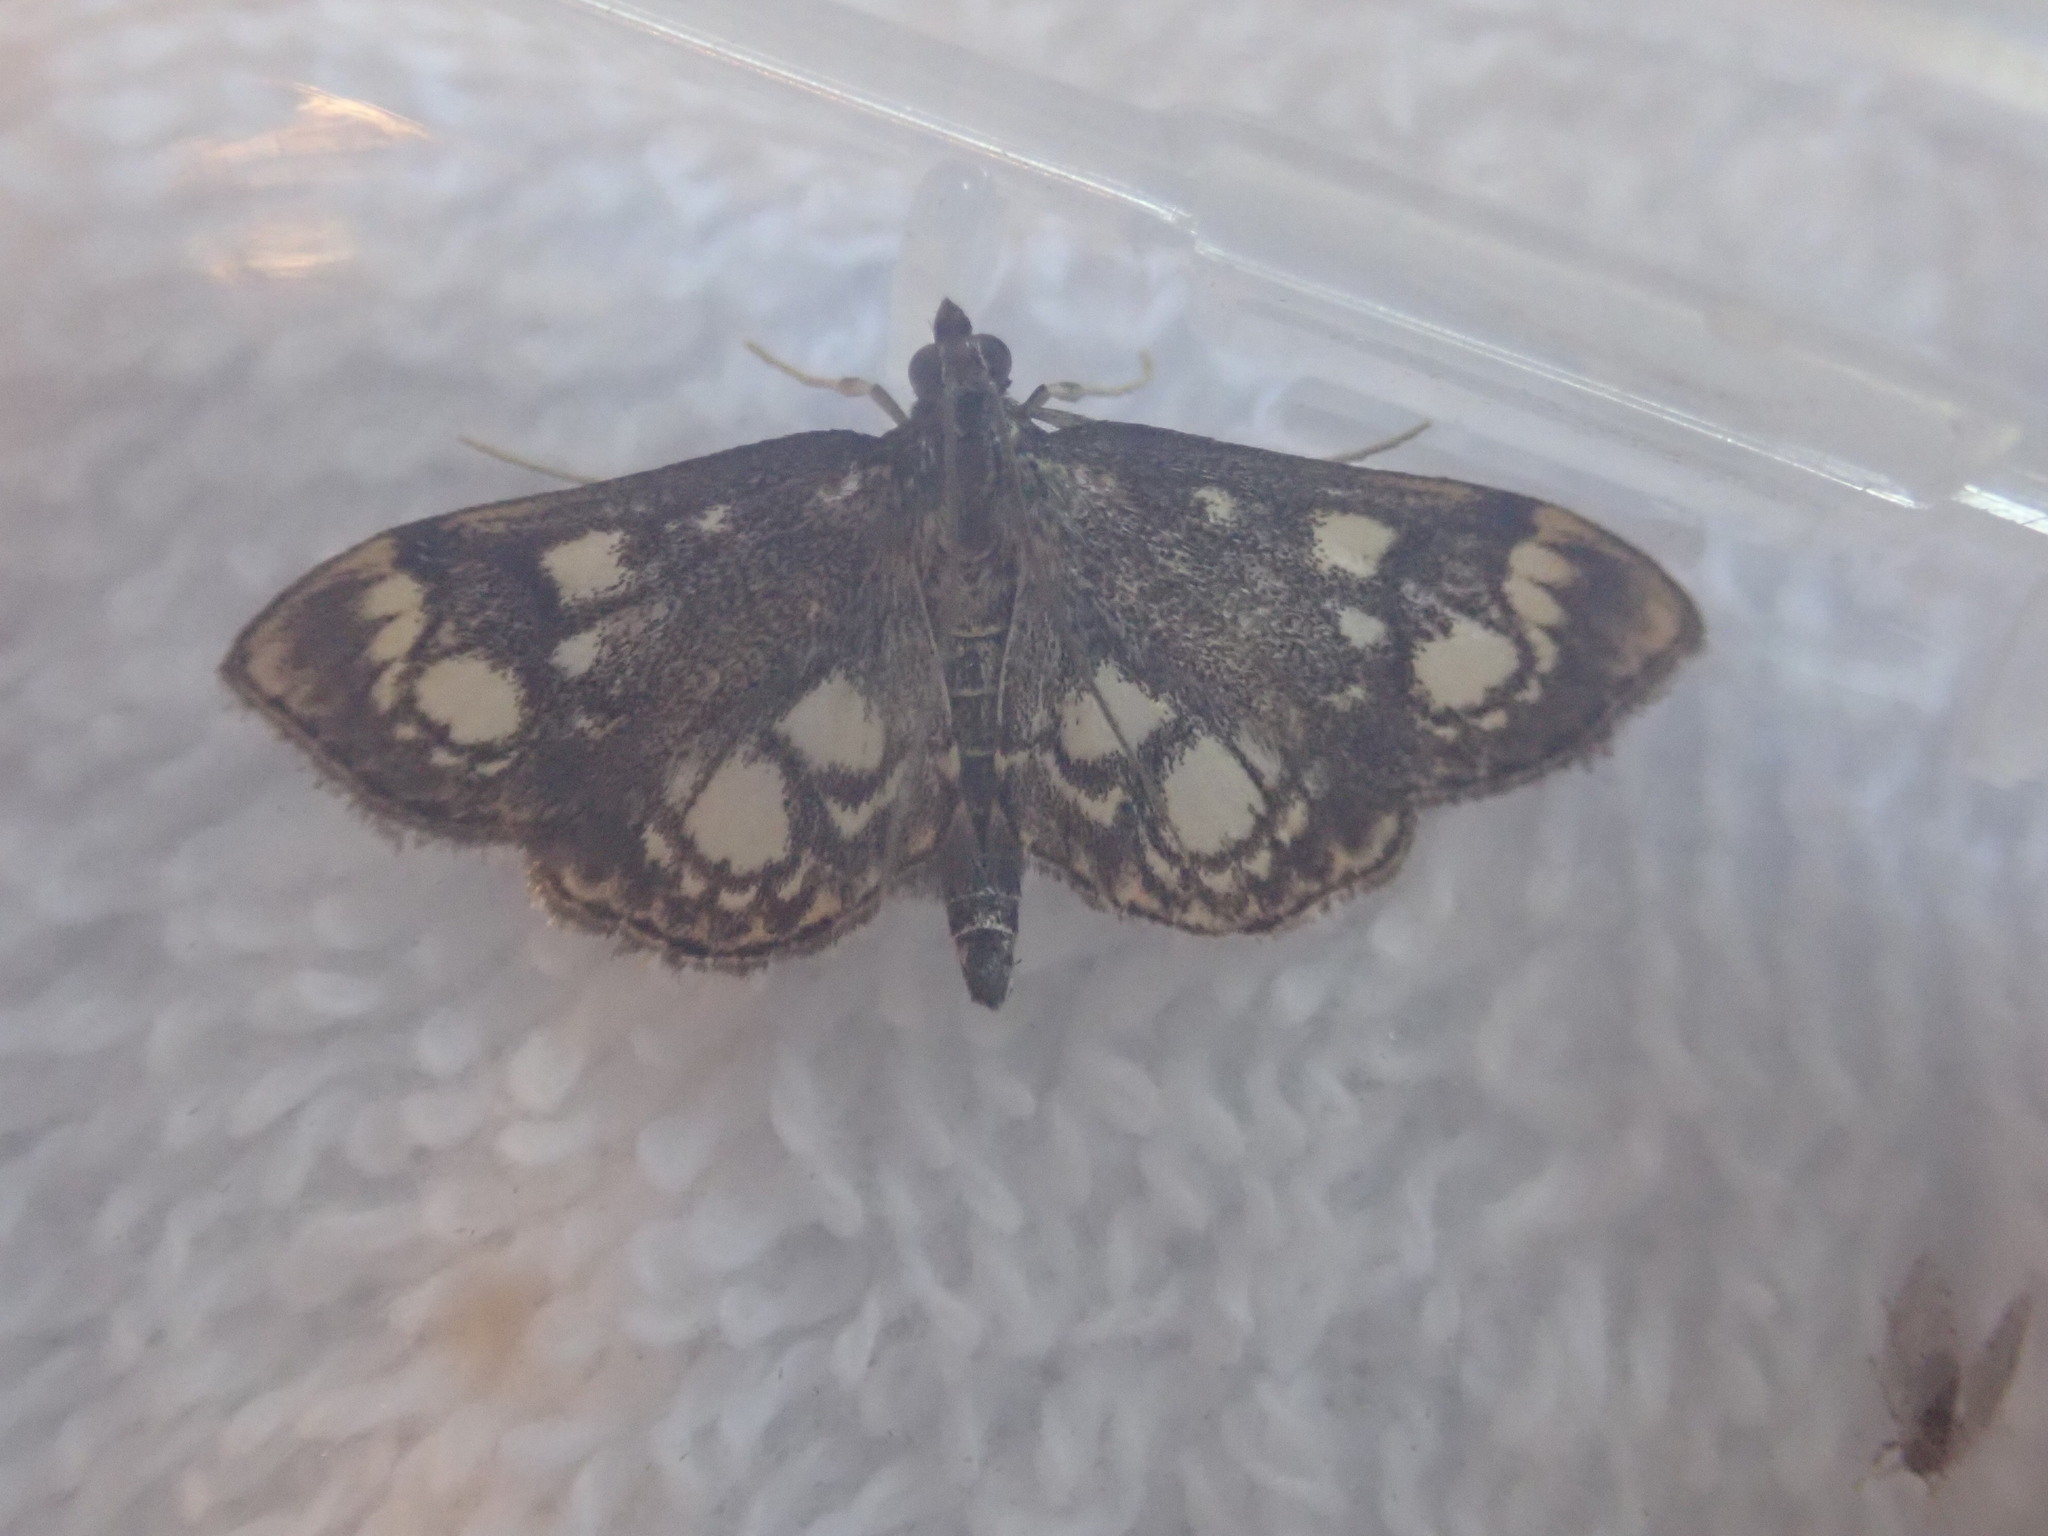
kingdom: Animalia
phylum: Arthropoda
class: Insecta
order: Lepidoptera
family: Crambidae
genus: Anania
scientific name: Anania coronata
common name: Elder pearl
